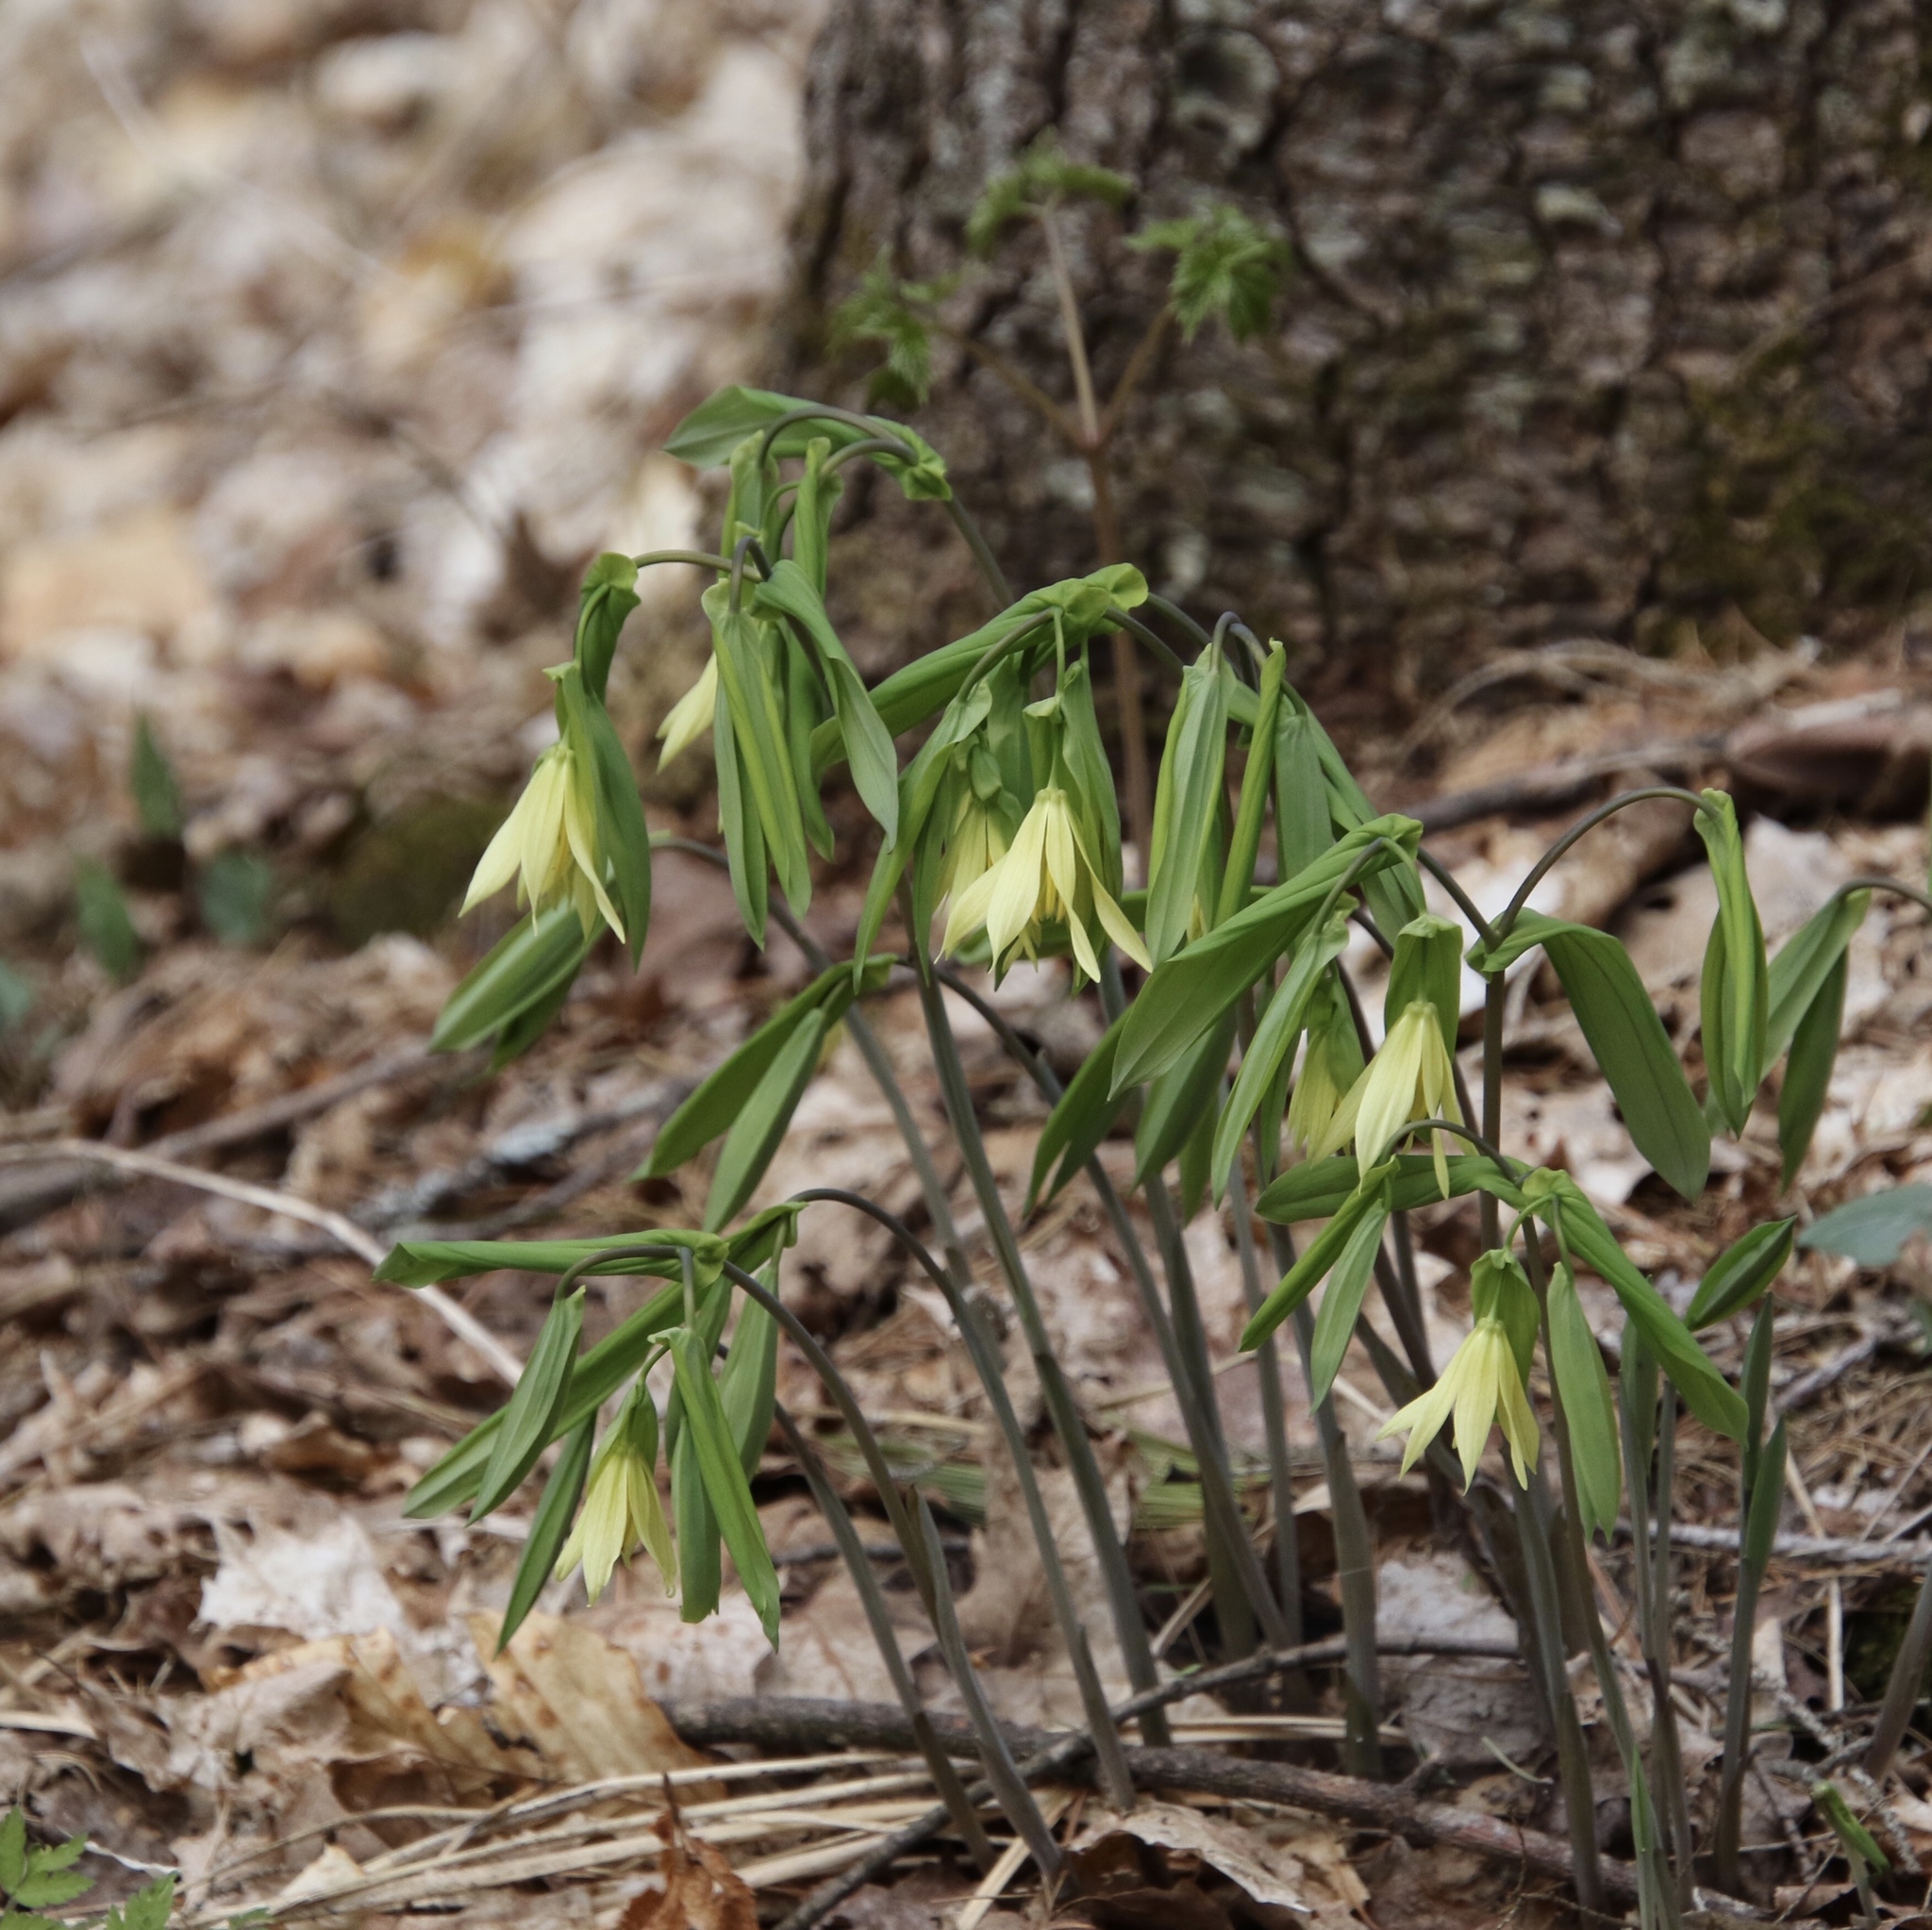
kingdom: Plantae
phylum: Tracheophyta
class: Liliopsida
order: Liliales
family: Colchicaceae
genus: Uvularia
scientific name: Uvularia grandiflora
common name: Bellwort
